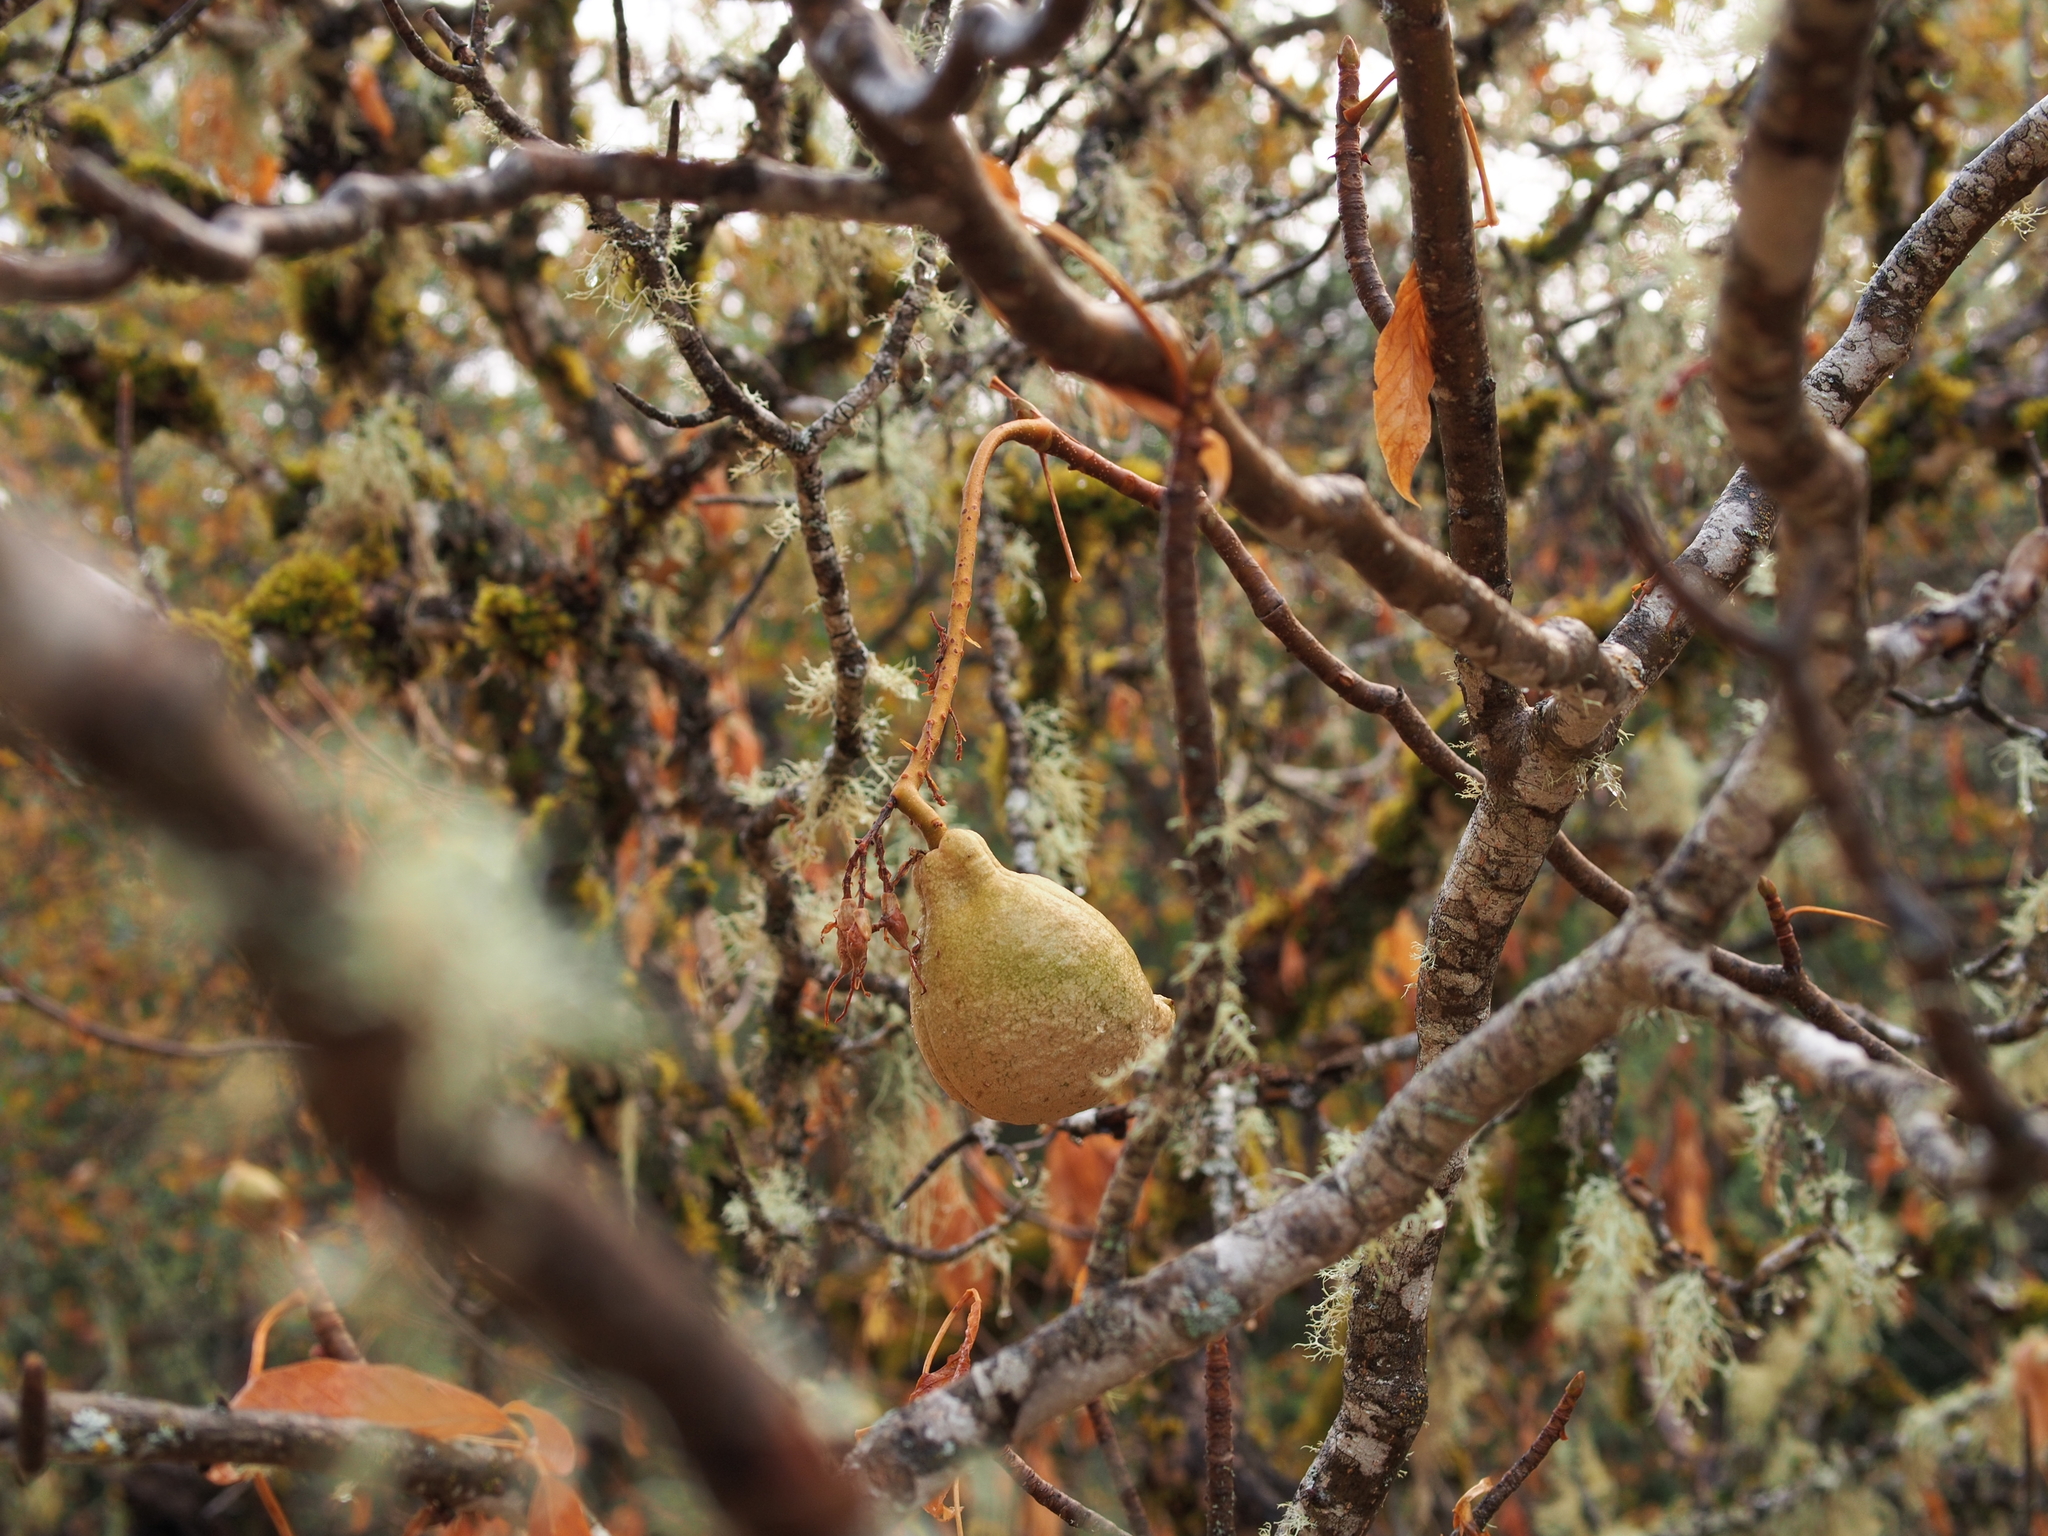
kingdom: Plantae
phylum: Tracheophyta
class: Magnoliopsida
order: Sapindales
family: Sapindaceae
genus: Aesculus
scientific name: Aesculus californica
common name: California buckeye
